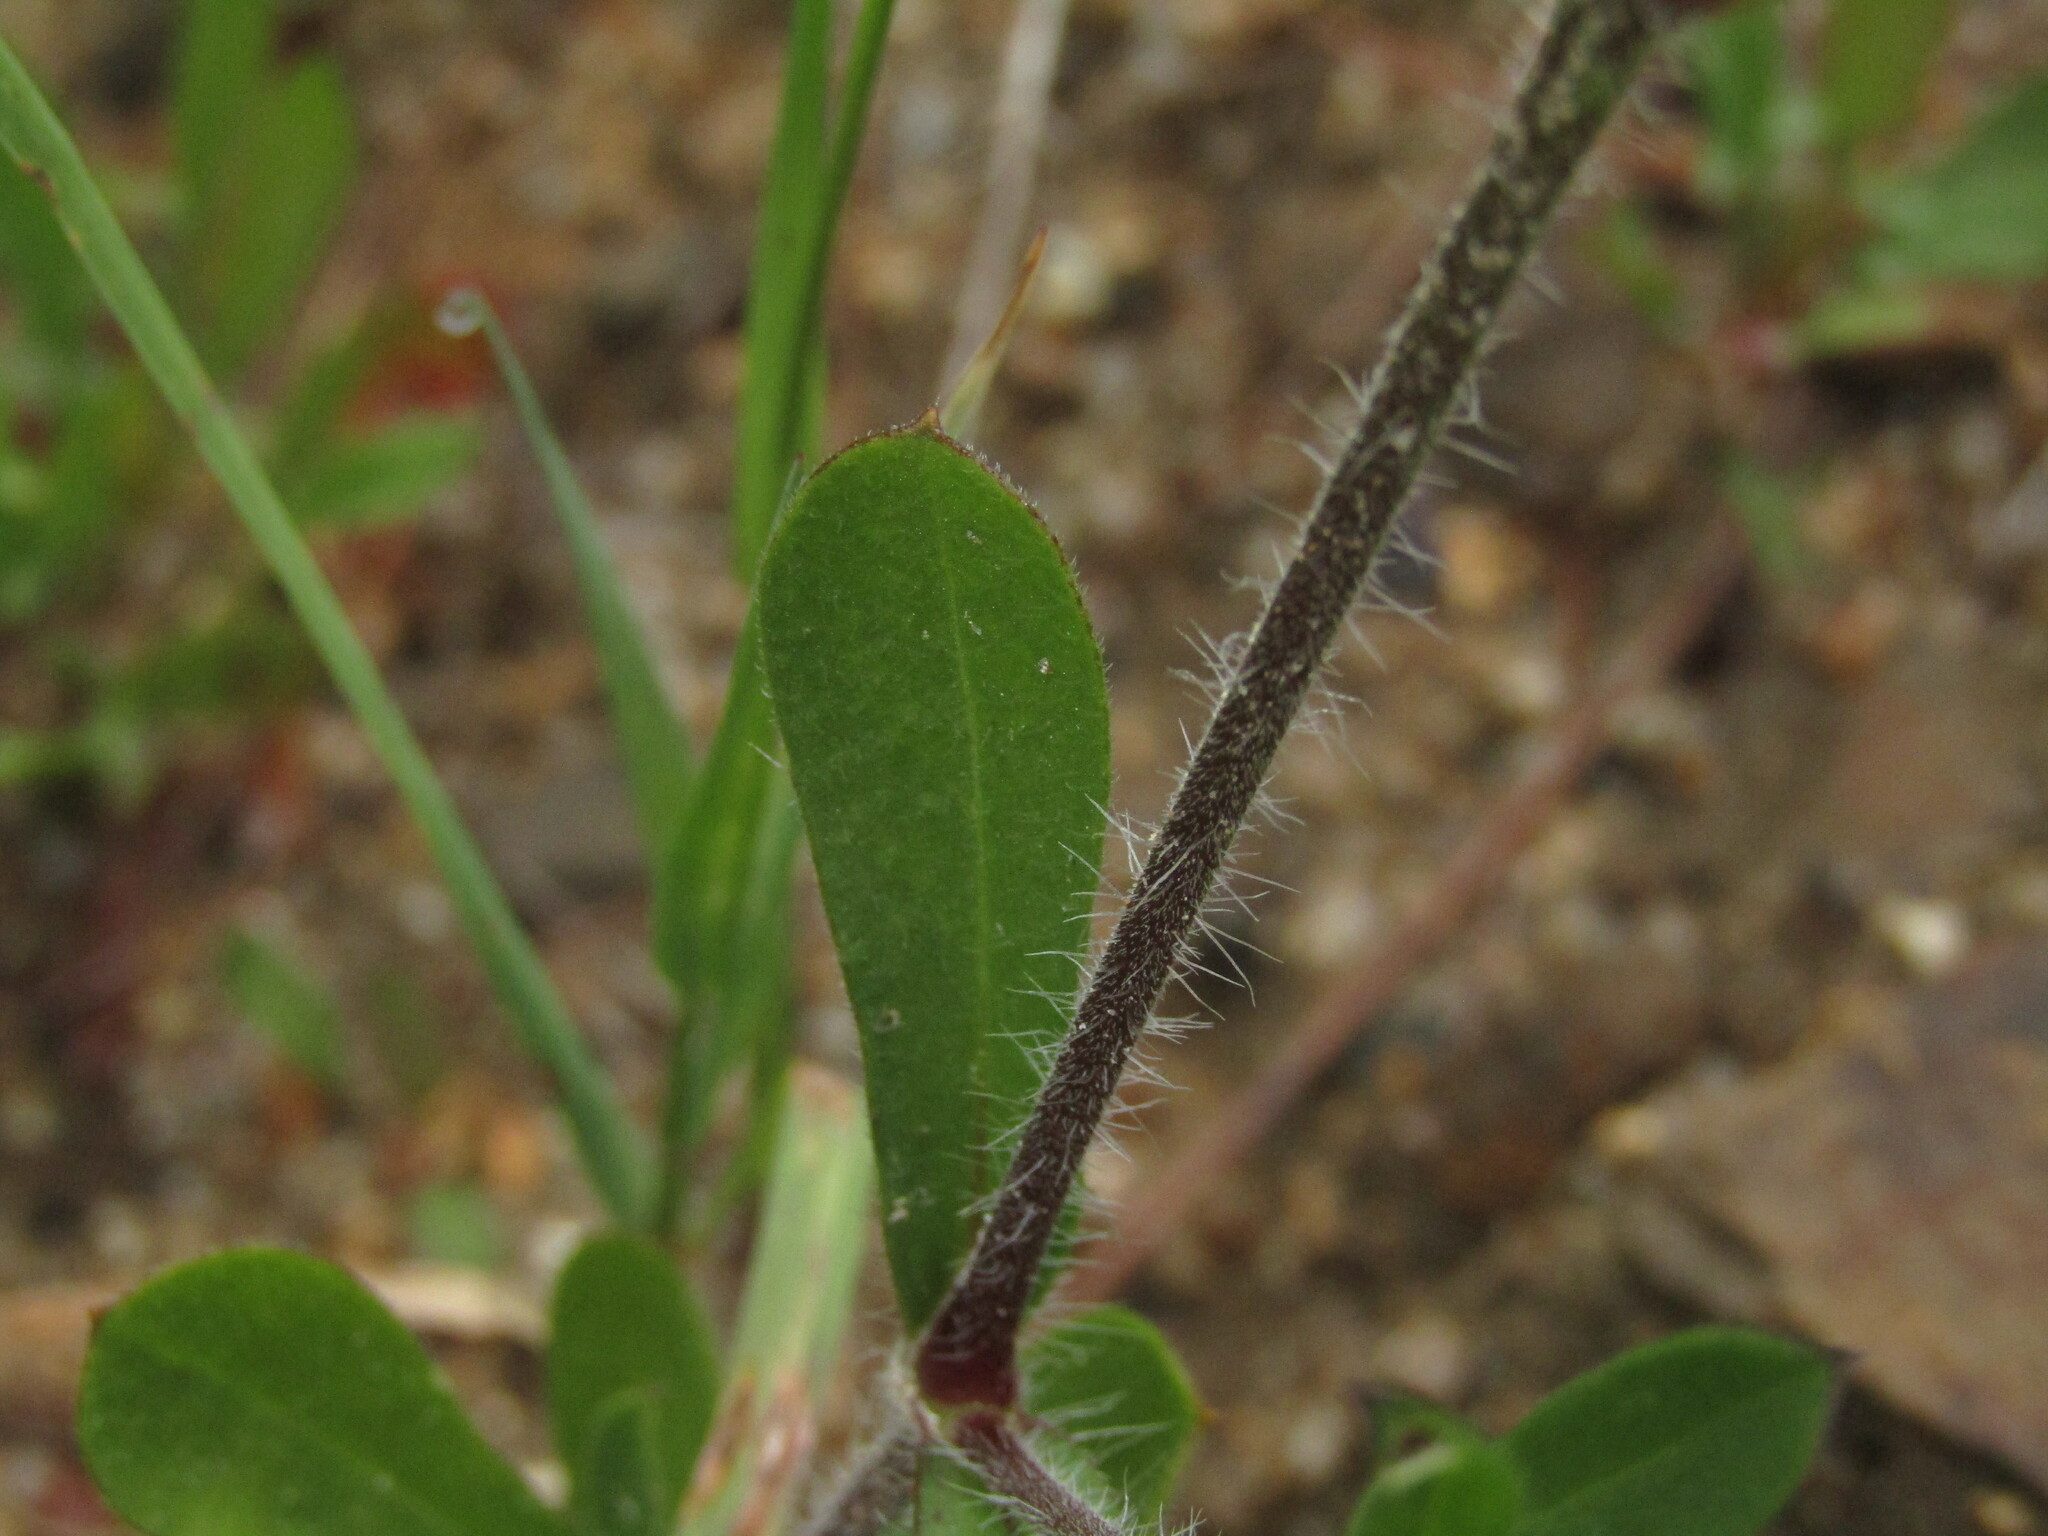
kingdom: Plantae
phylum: Tracheophyta
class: Magnoliopsida
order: Caryophyllales
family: Caryophyllaceae
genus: Silene
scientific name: Silene gallica
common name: Small-flowered catchfly
